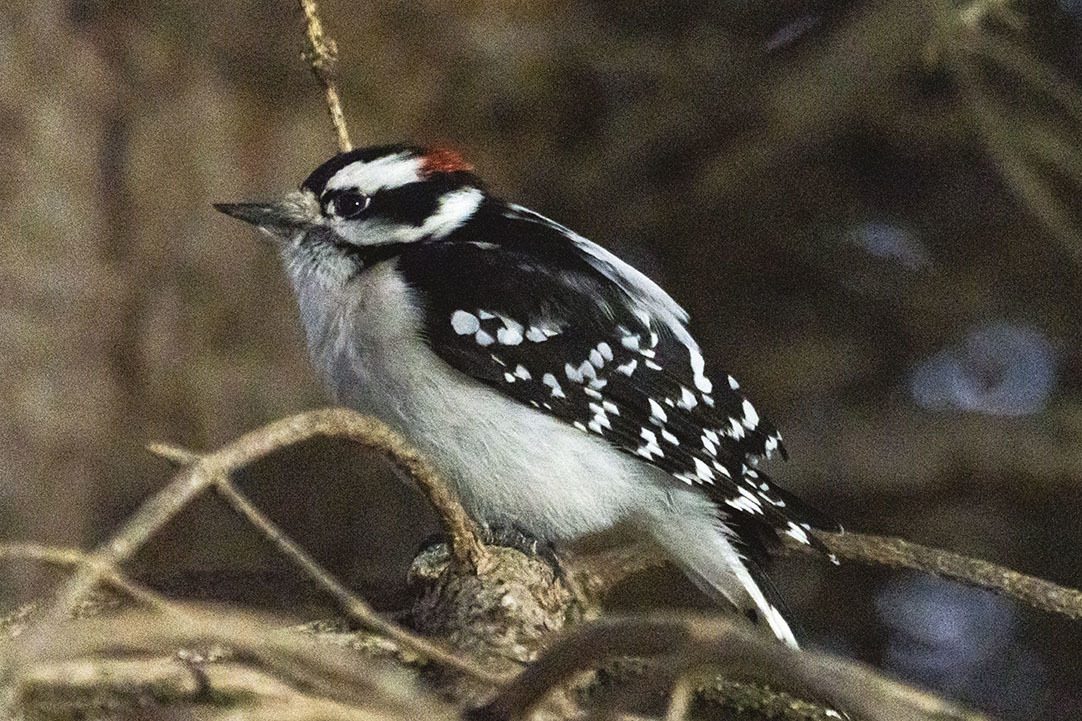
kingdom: Animalia
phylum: Chordata
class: Aves
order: Piciformes
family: Picidae
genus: Dryobates
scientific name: Dryobates pubescens
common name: Downy woodpecker
